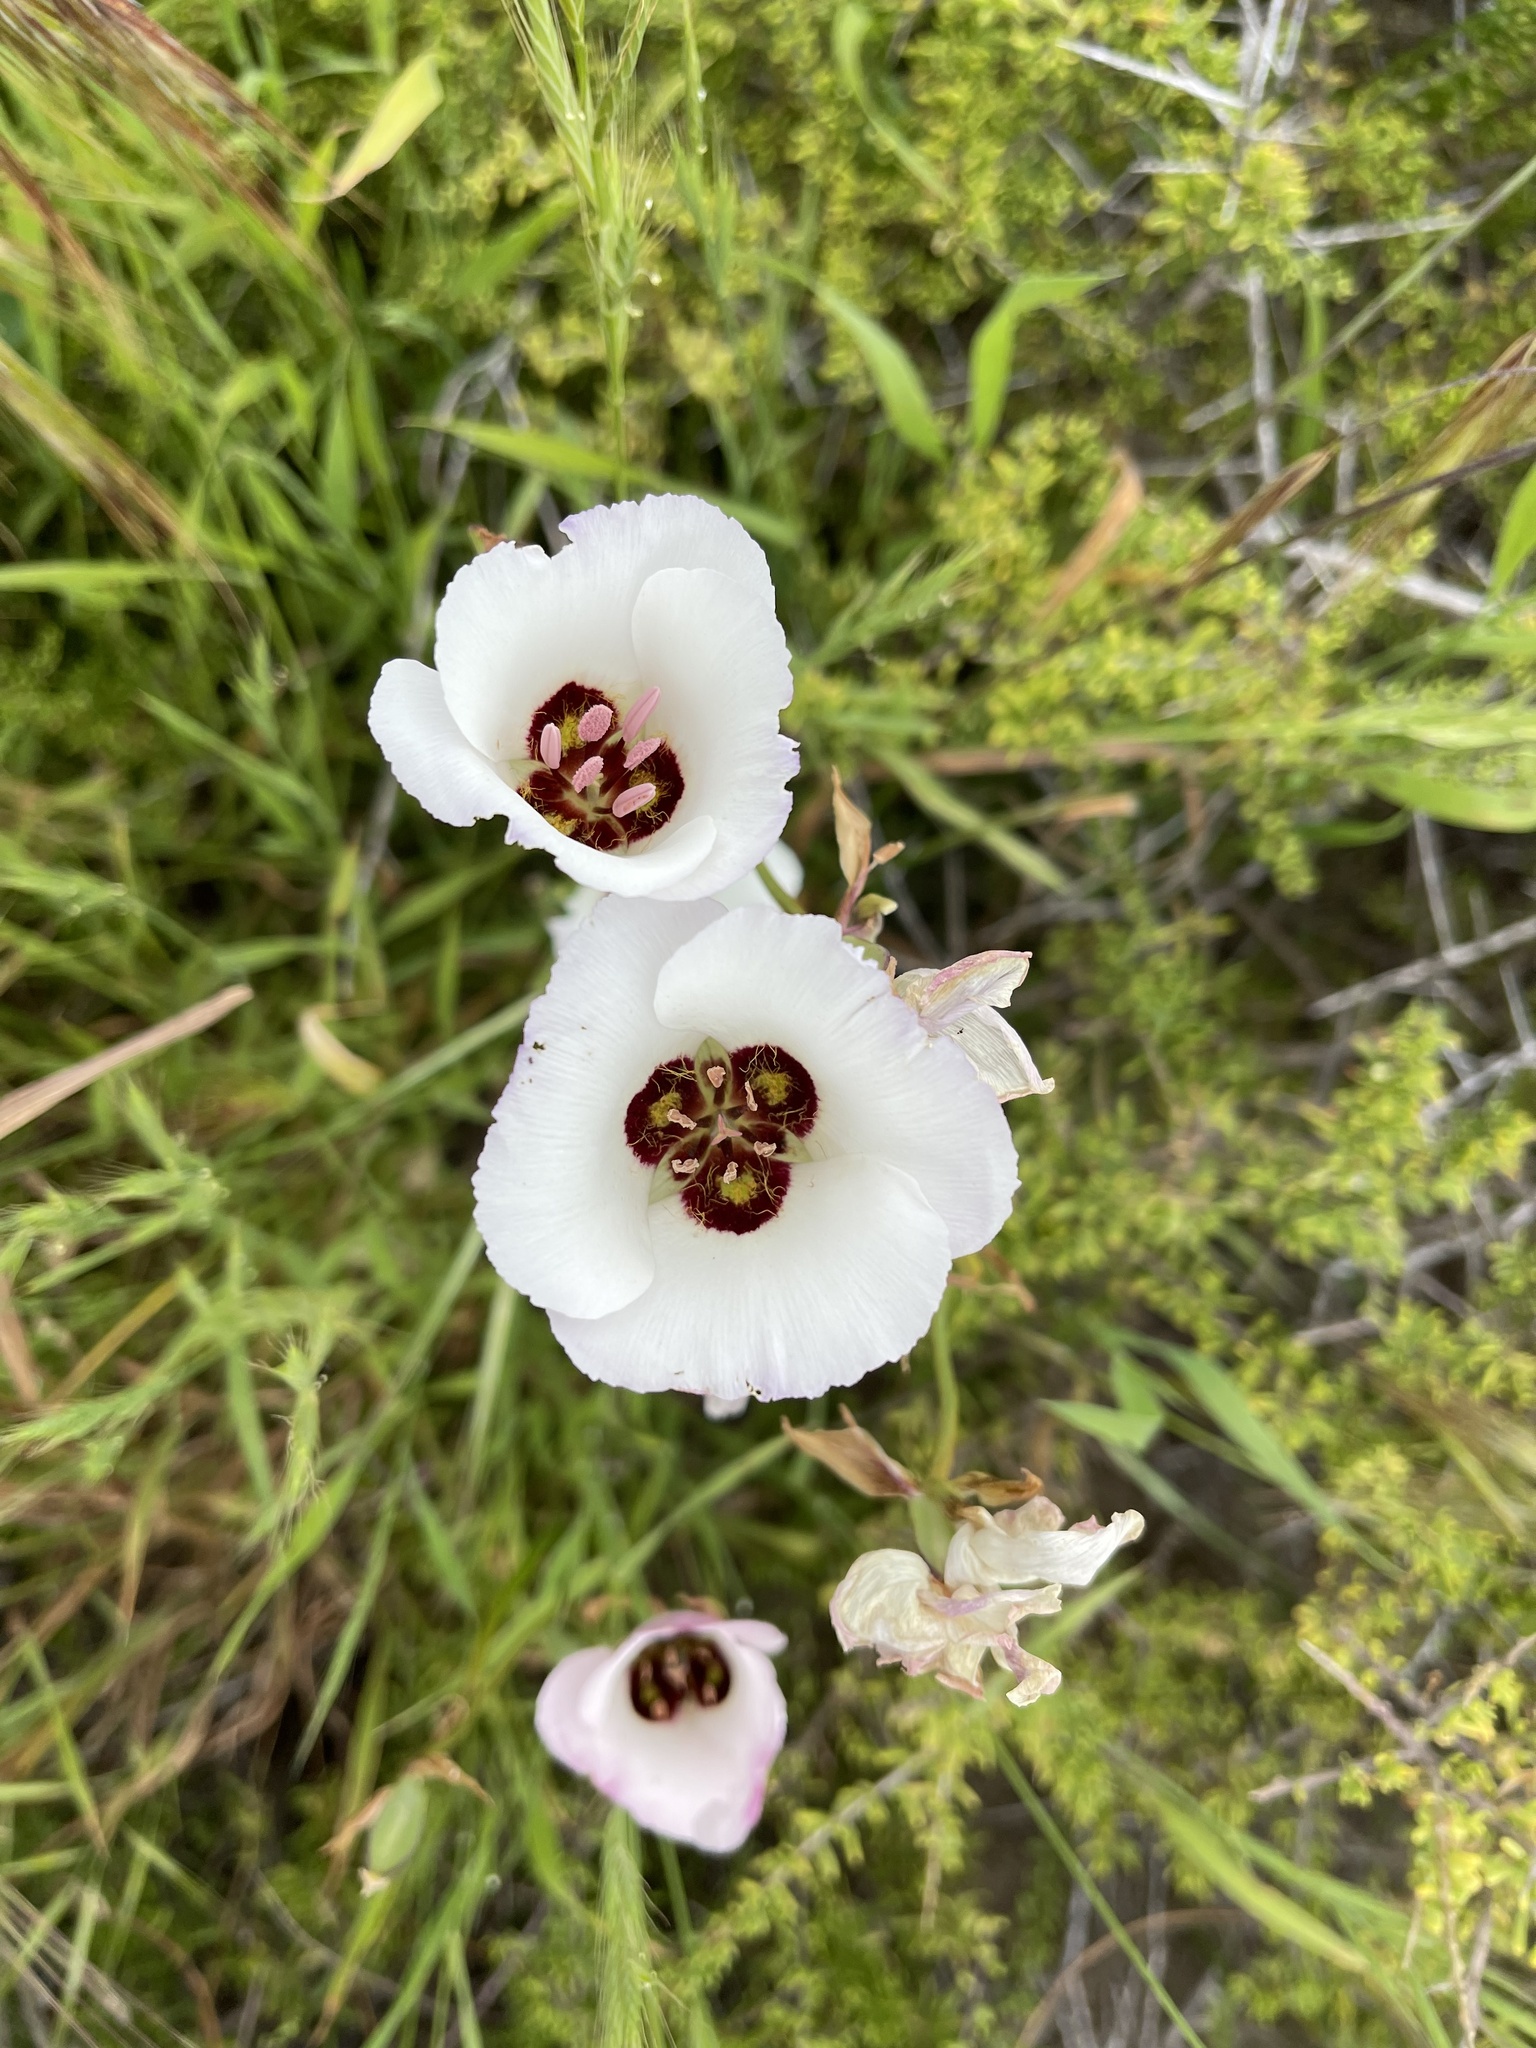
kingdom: Plantae
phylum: Tracheophyta
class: Liliopsida
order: Liliales
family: Liliaceae
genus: Calochortus
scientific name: Calochortus catalinae
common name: Catalina mariposa-lily
